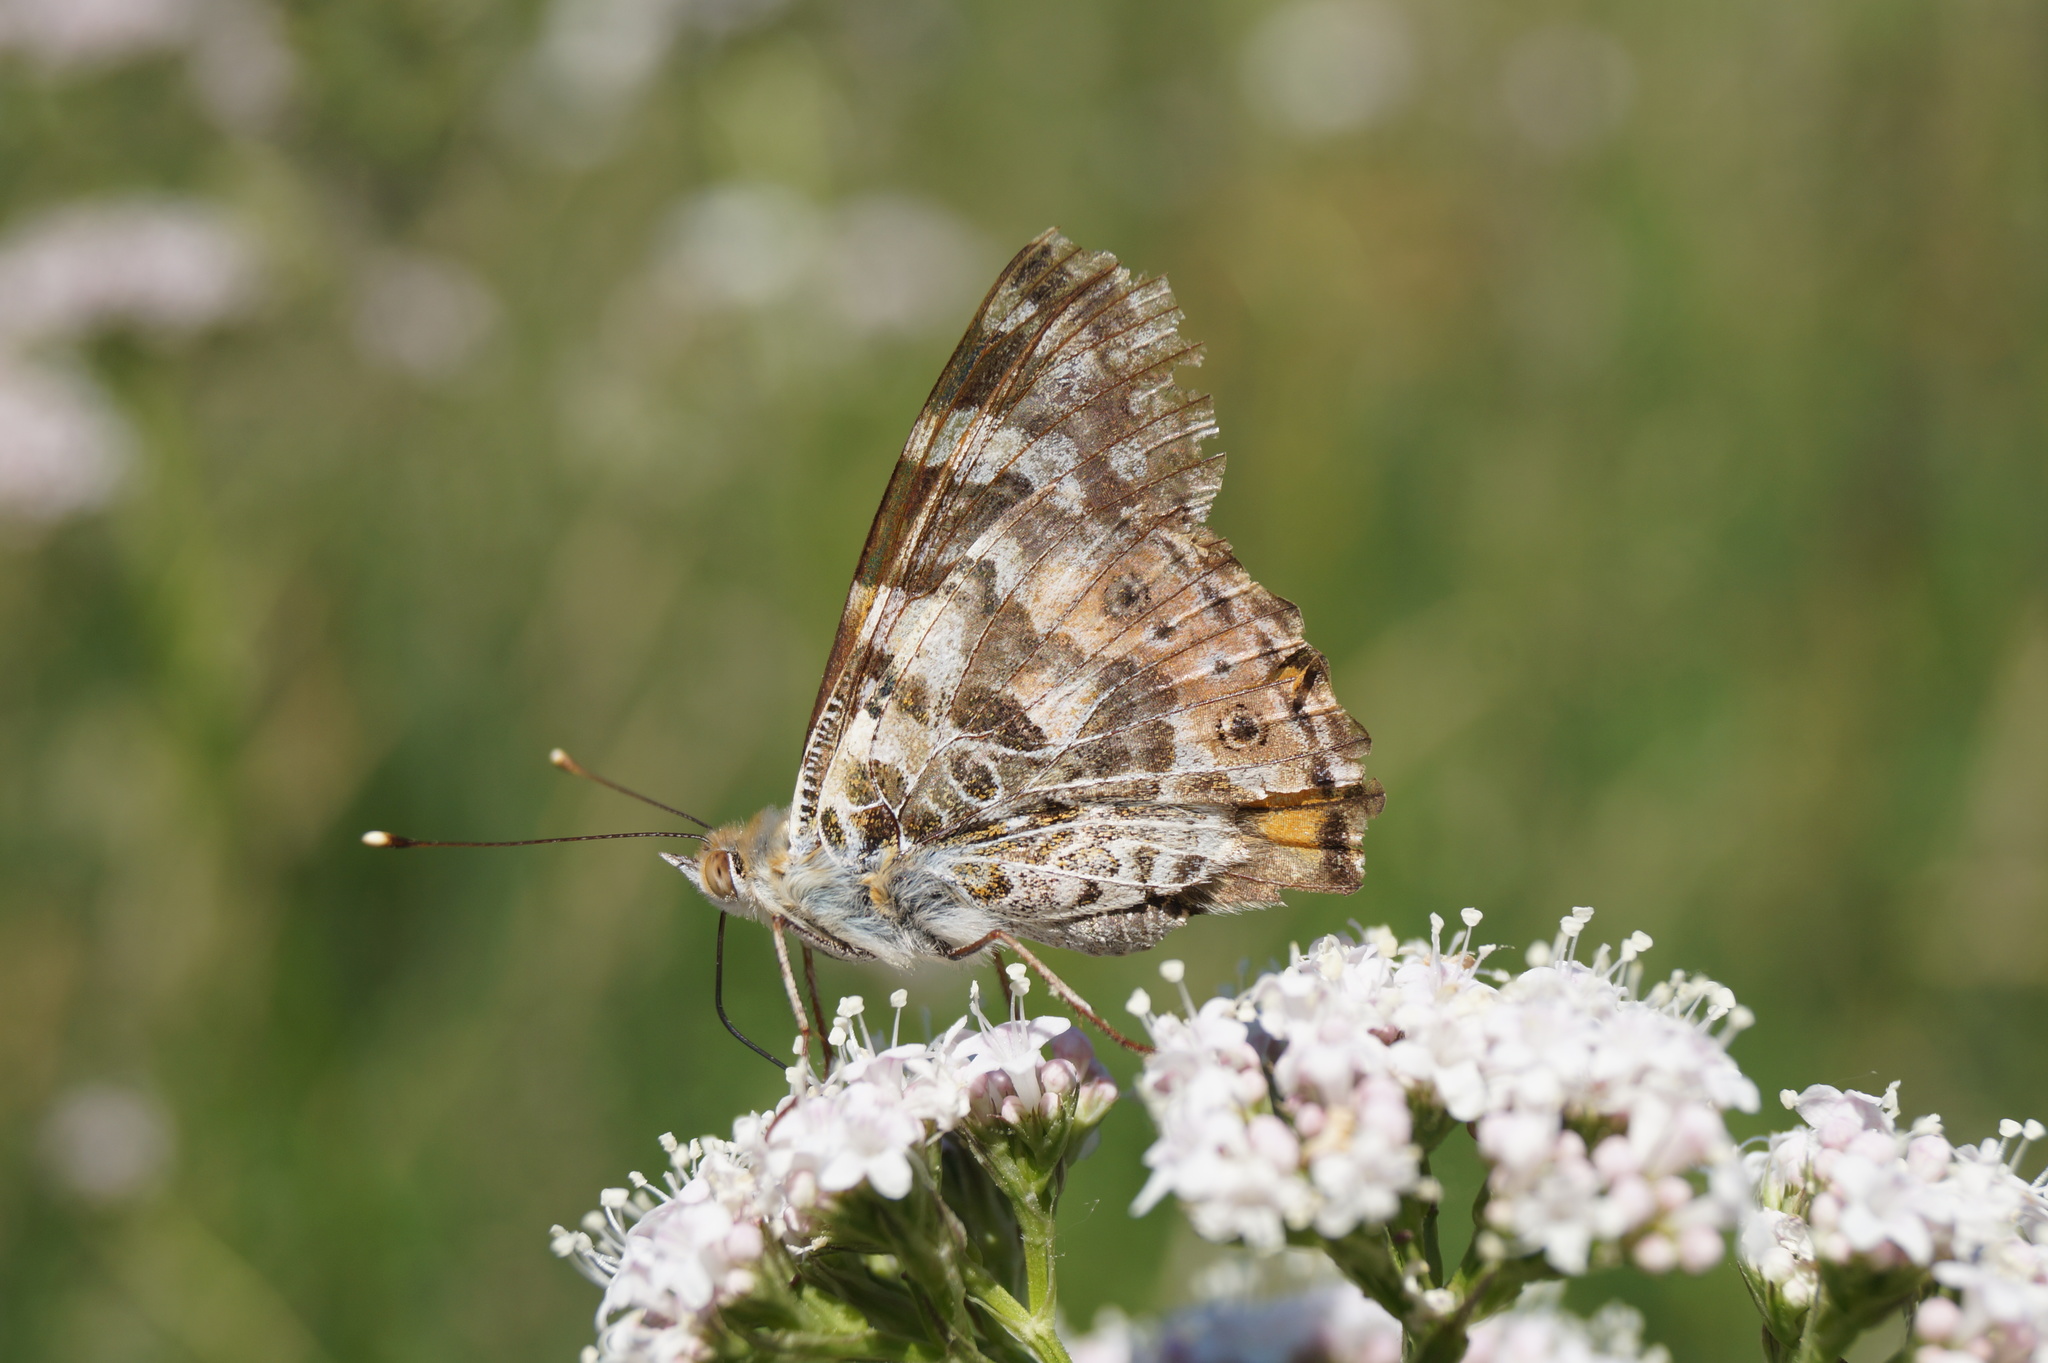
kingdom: Animalia
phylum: Arthropoda
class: Insecta
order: Lepidoptera
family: Nymphalidae
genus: Vanessa
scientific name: Vanessa cardui
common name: Painted lady
